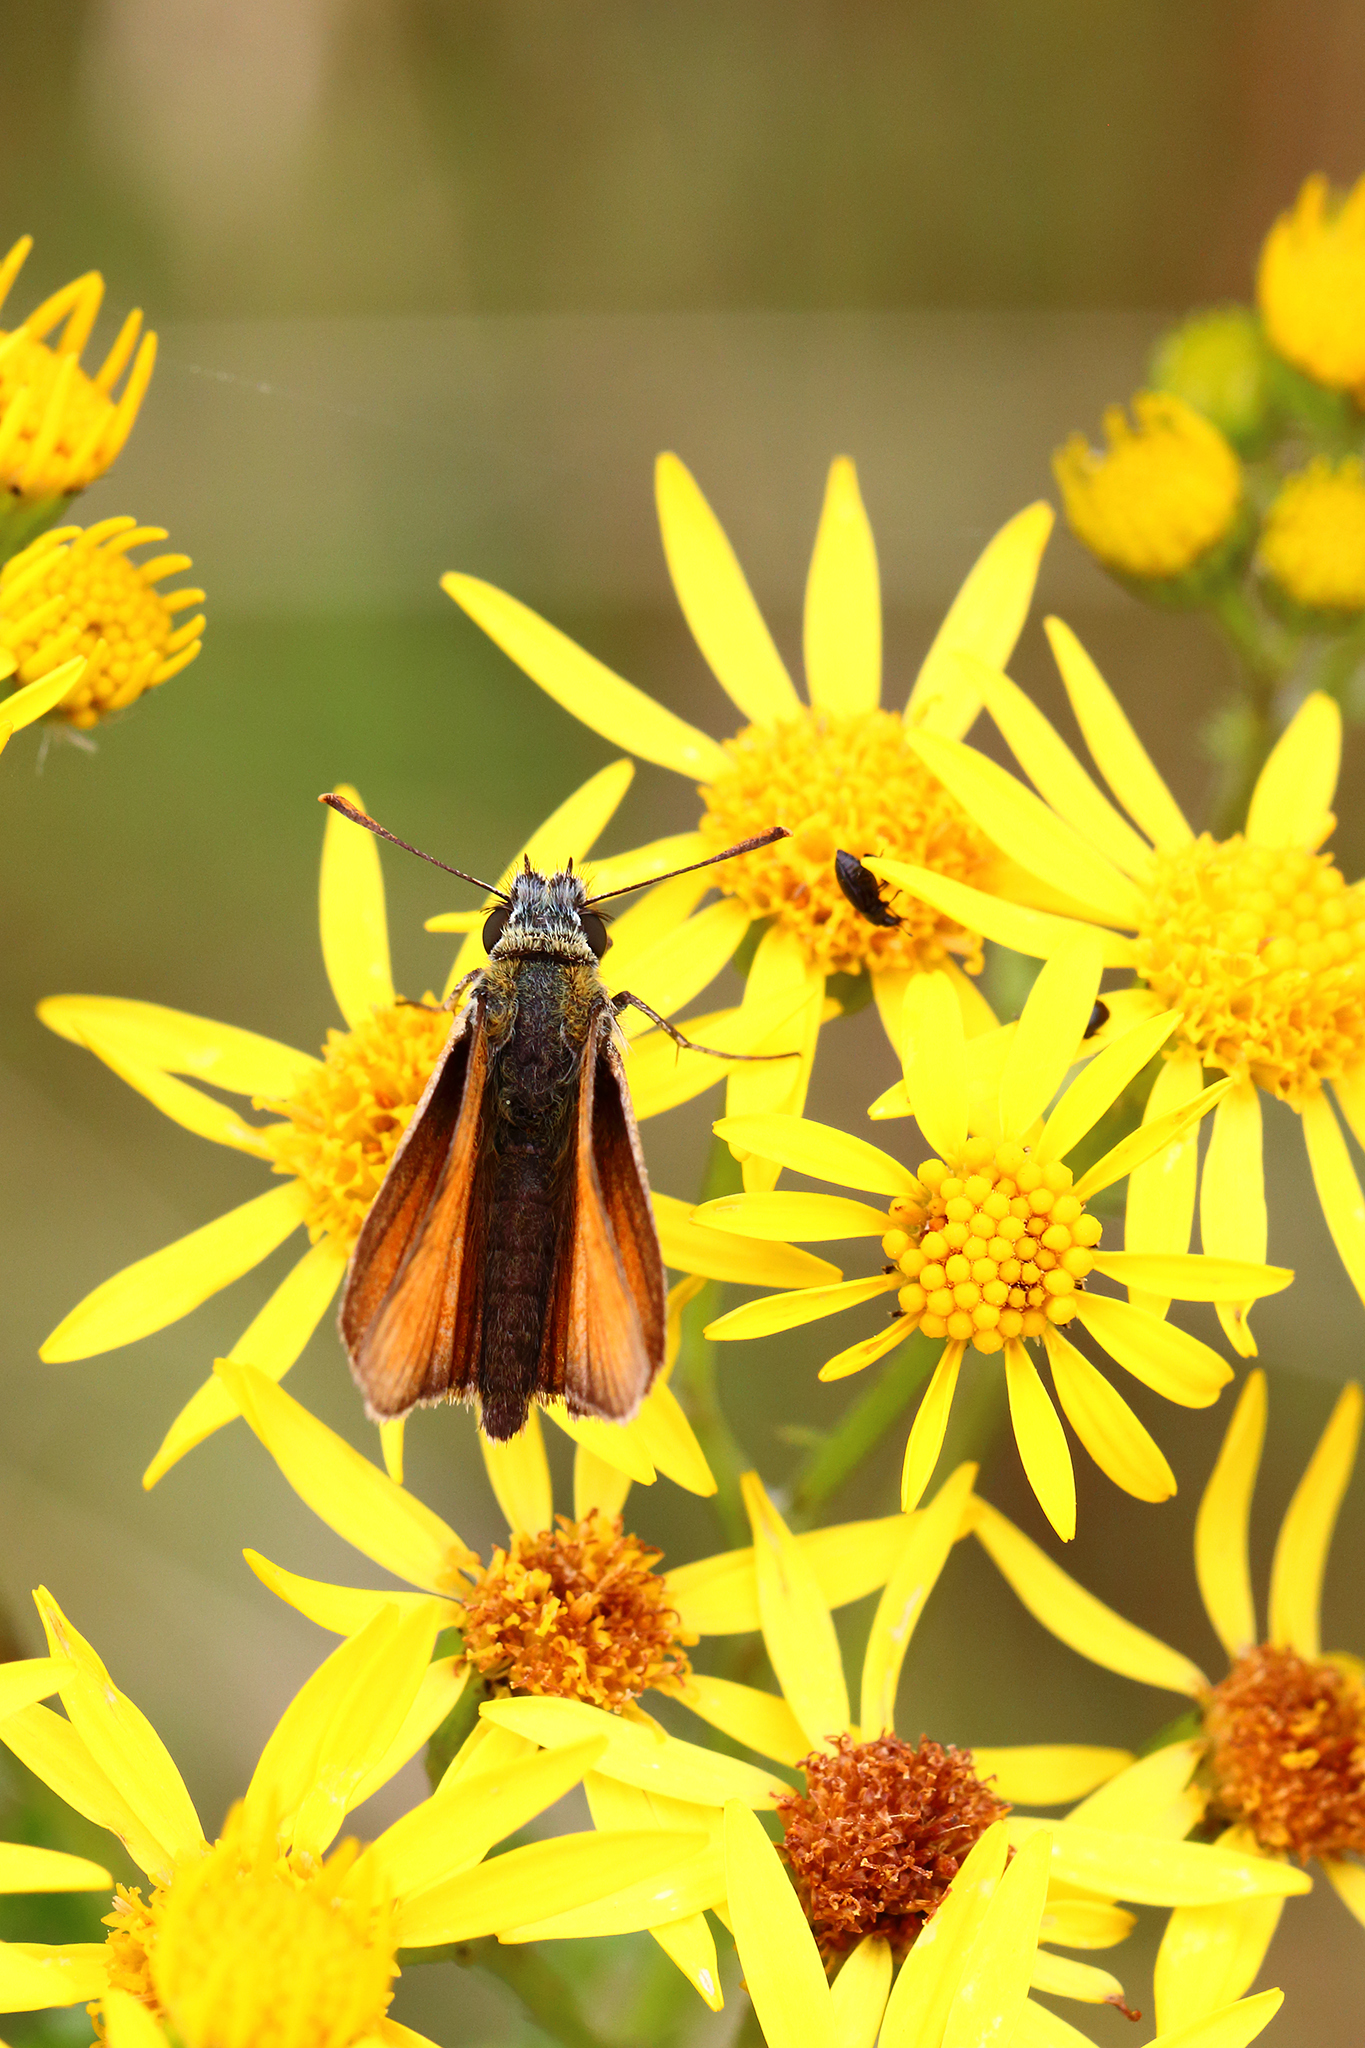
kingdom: Animalia
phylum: Arthropoda
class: Insecta
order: Lepidoptera
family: Hesperiidae
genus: Thymelicus
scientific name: Thymelicus sylvestris
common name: Small skipper
